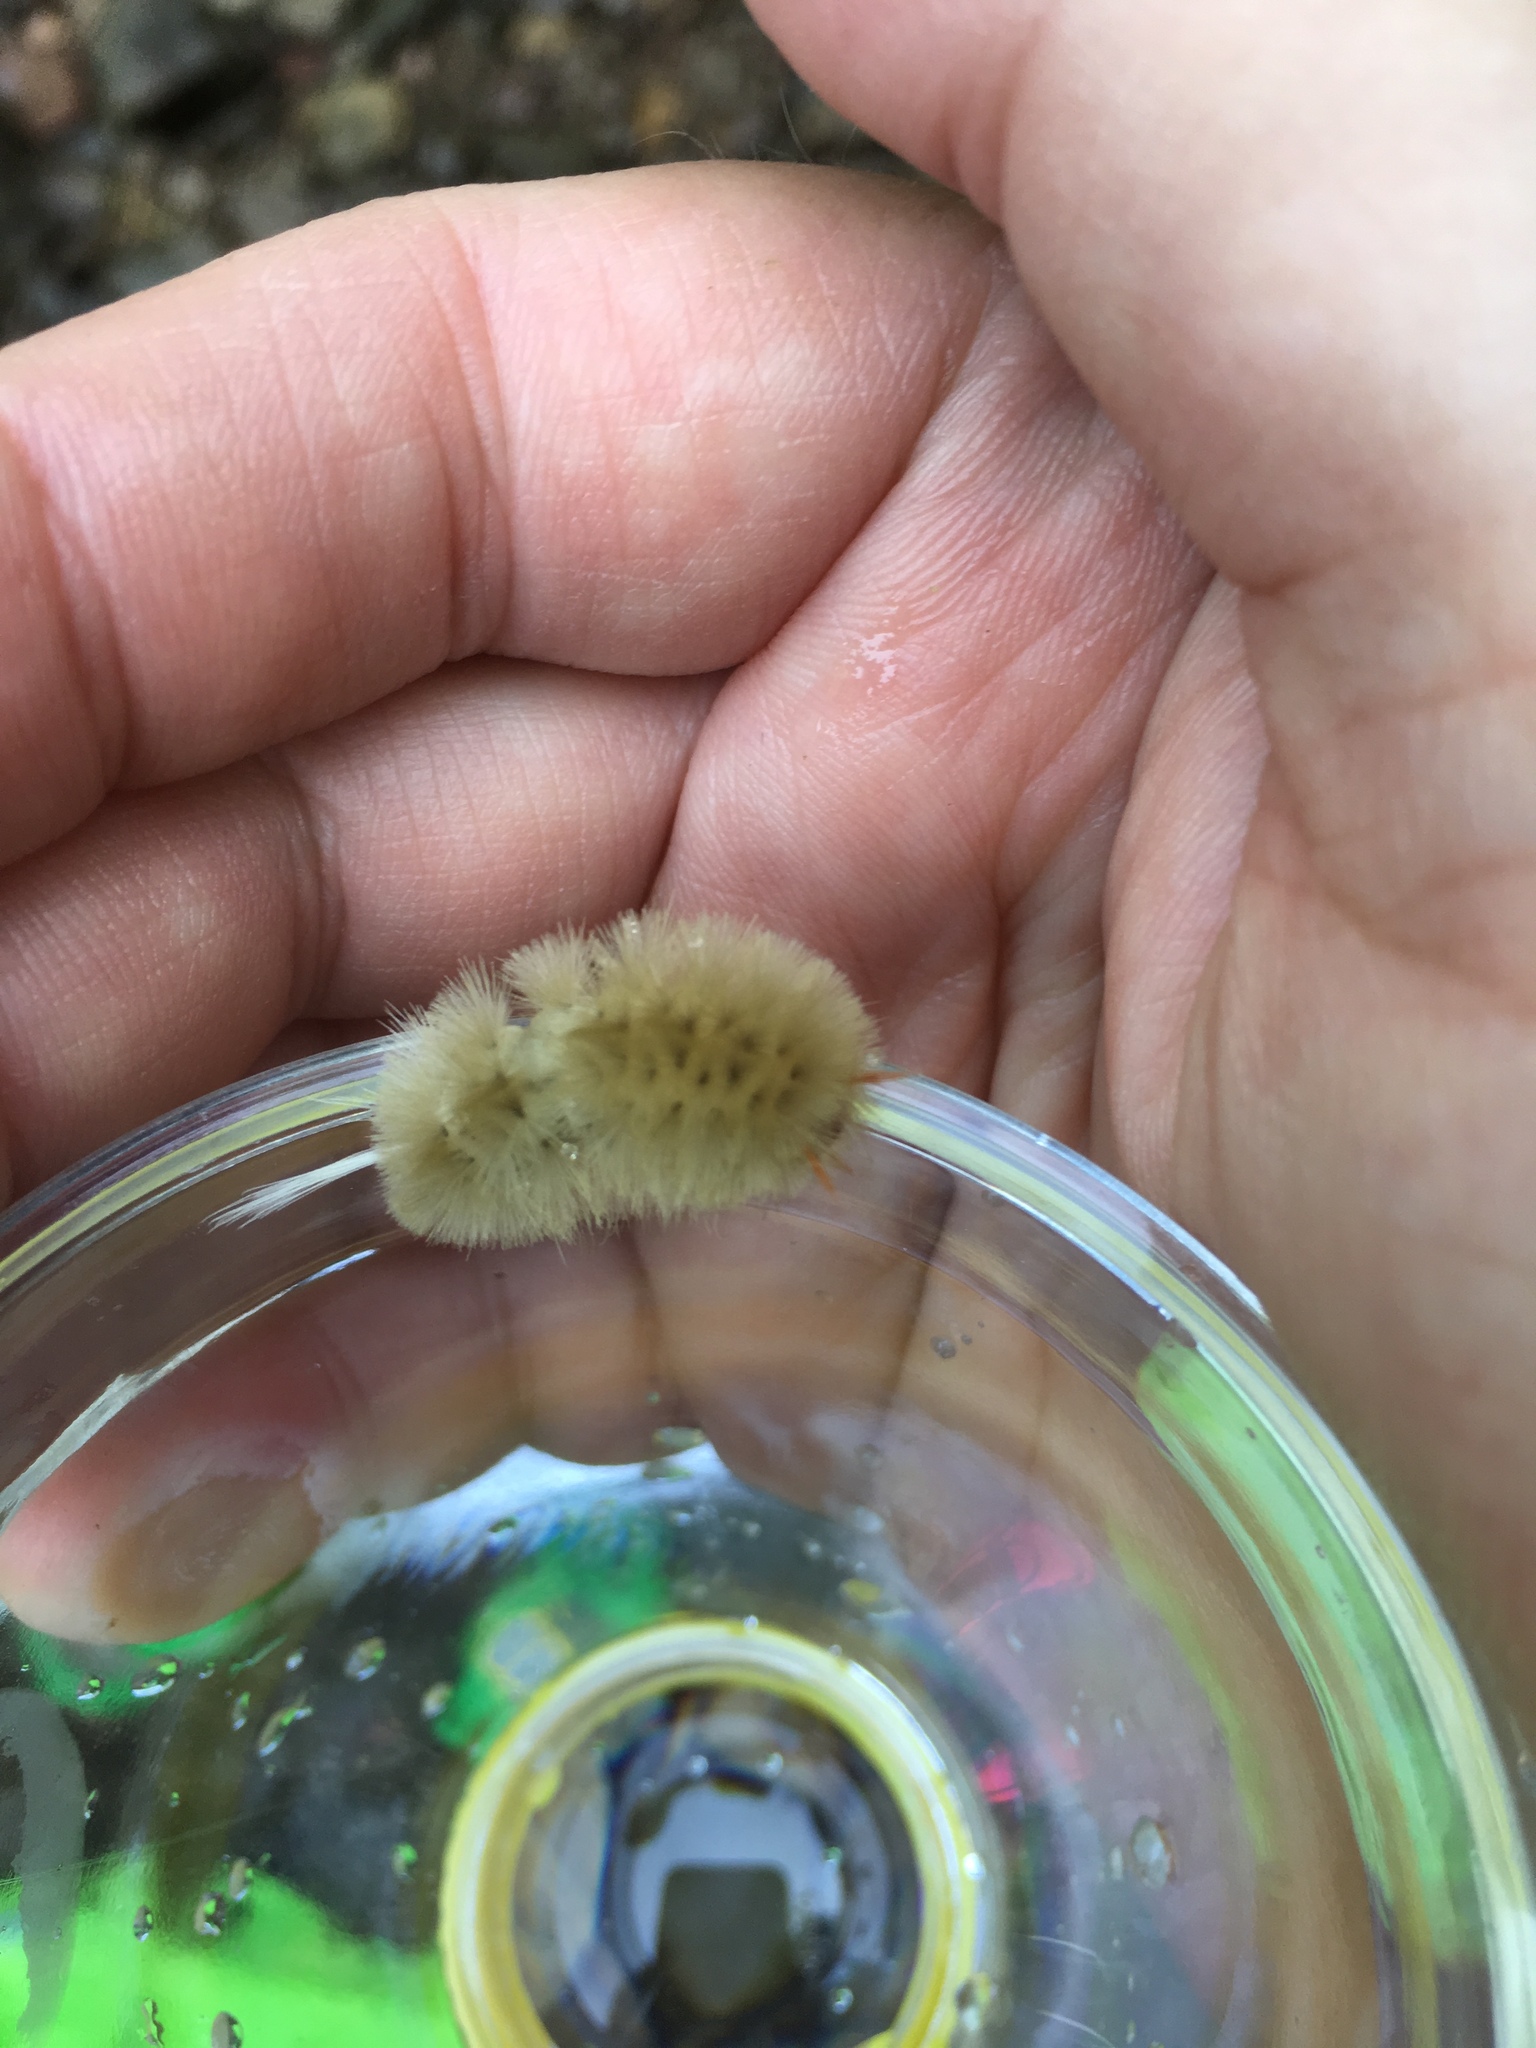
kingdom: Animalia
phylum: Arthropoda
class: Insecta
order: Lepidoptera
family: Erebidae
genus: Halysidota
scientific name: Halysidota harrisii
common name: Sycamore tussock moth
